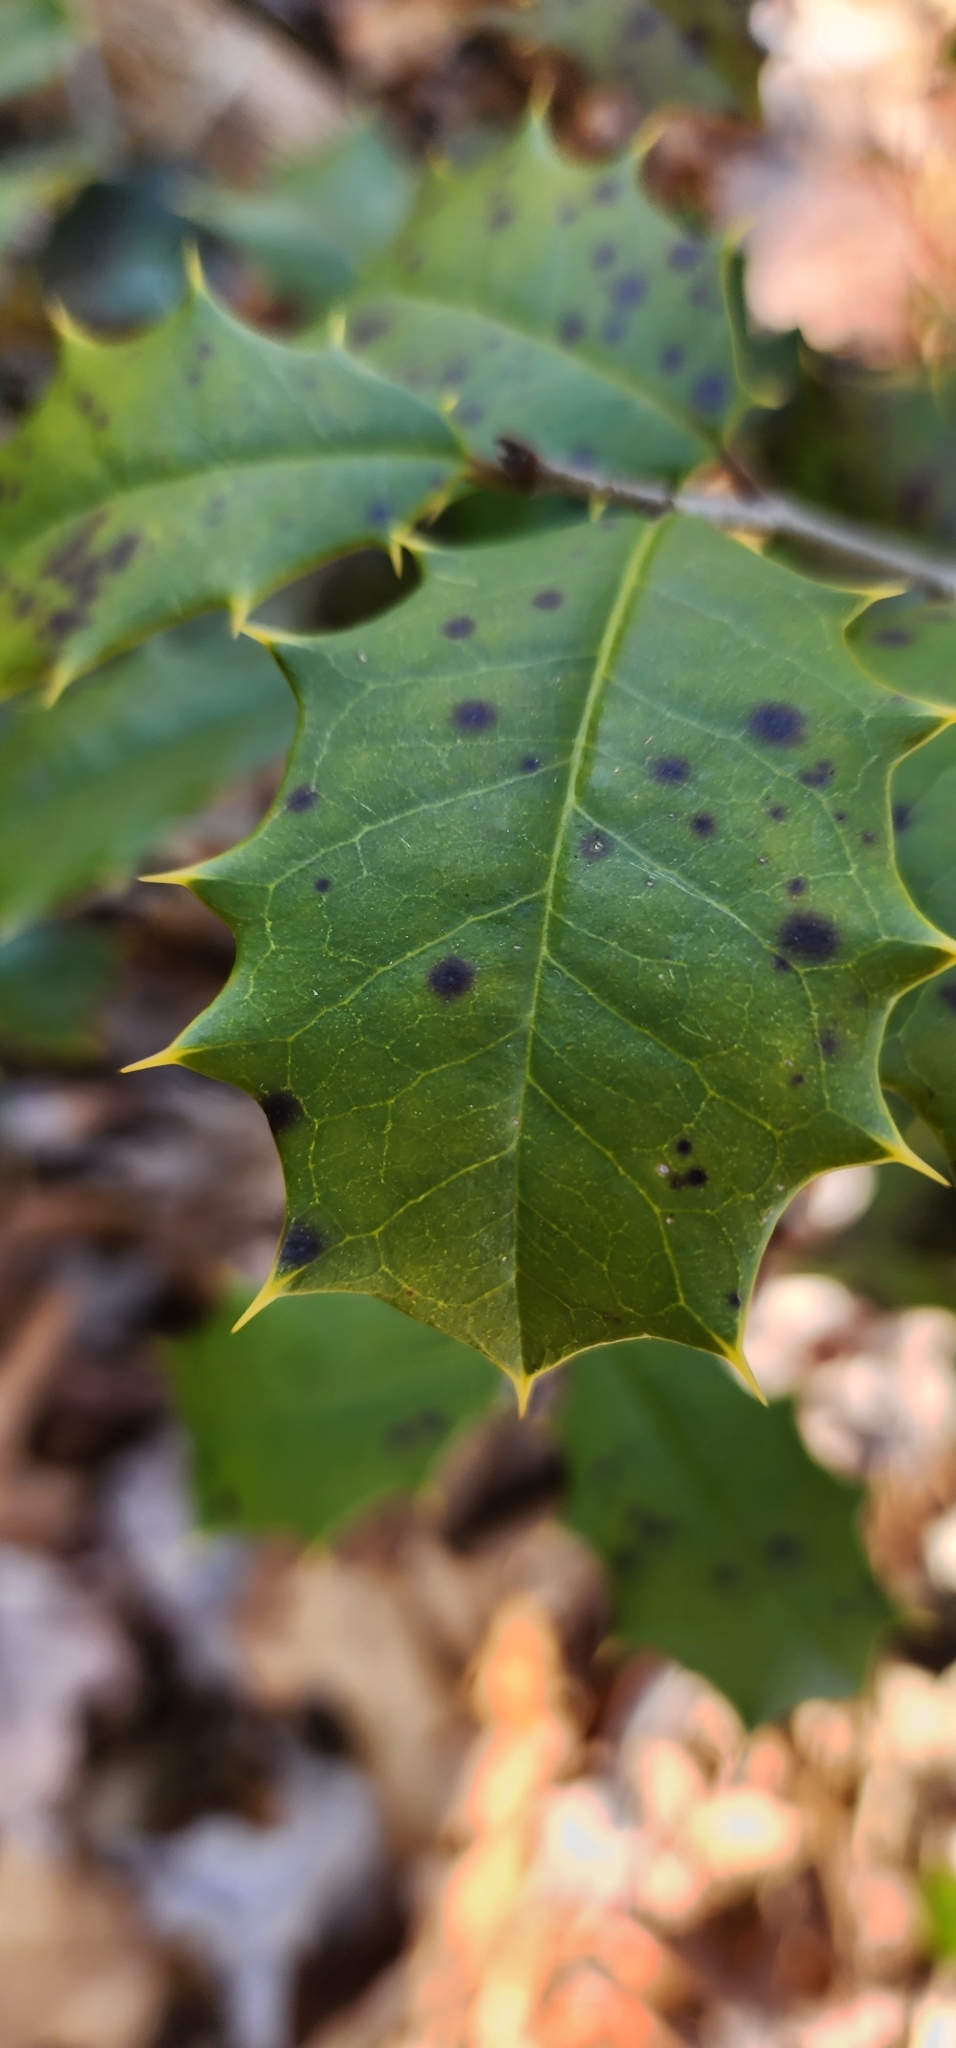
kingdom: Plantae
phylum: Tracheophyta
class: Magnoliopsida
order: Aquifoliales
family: Aquifoliaceae
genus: Ilex
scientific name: Ilex opaca
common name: American holly
